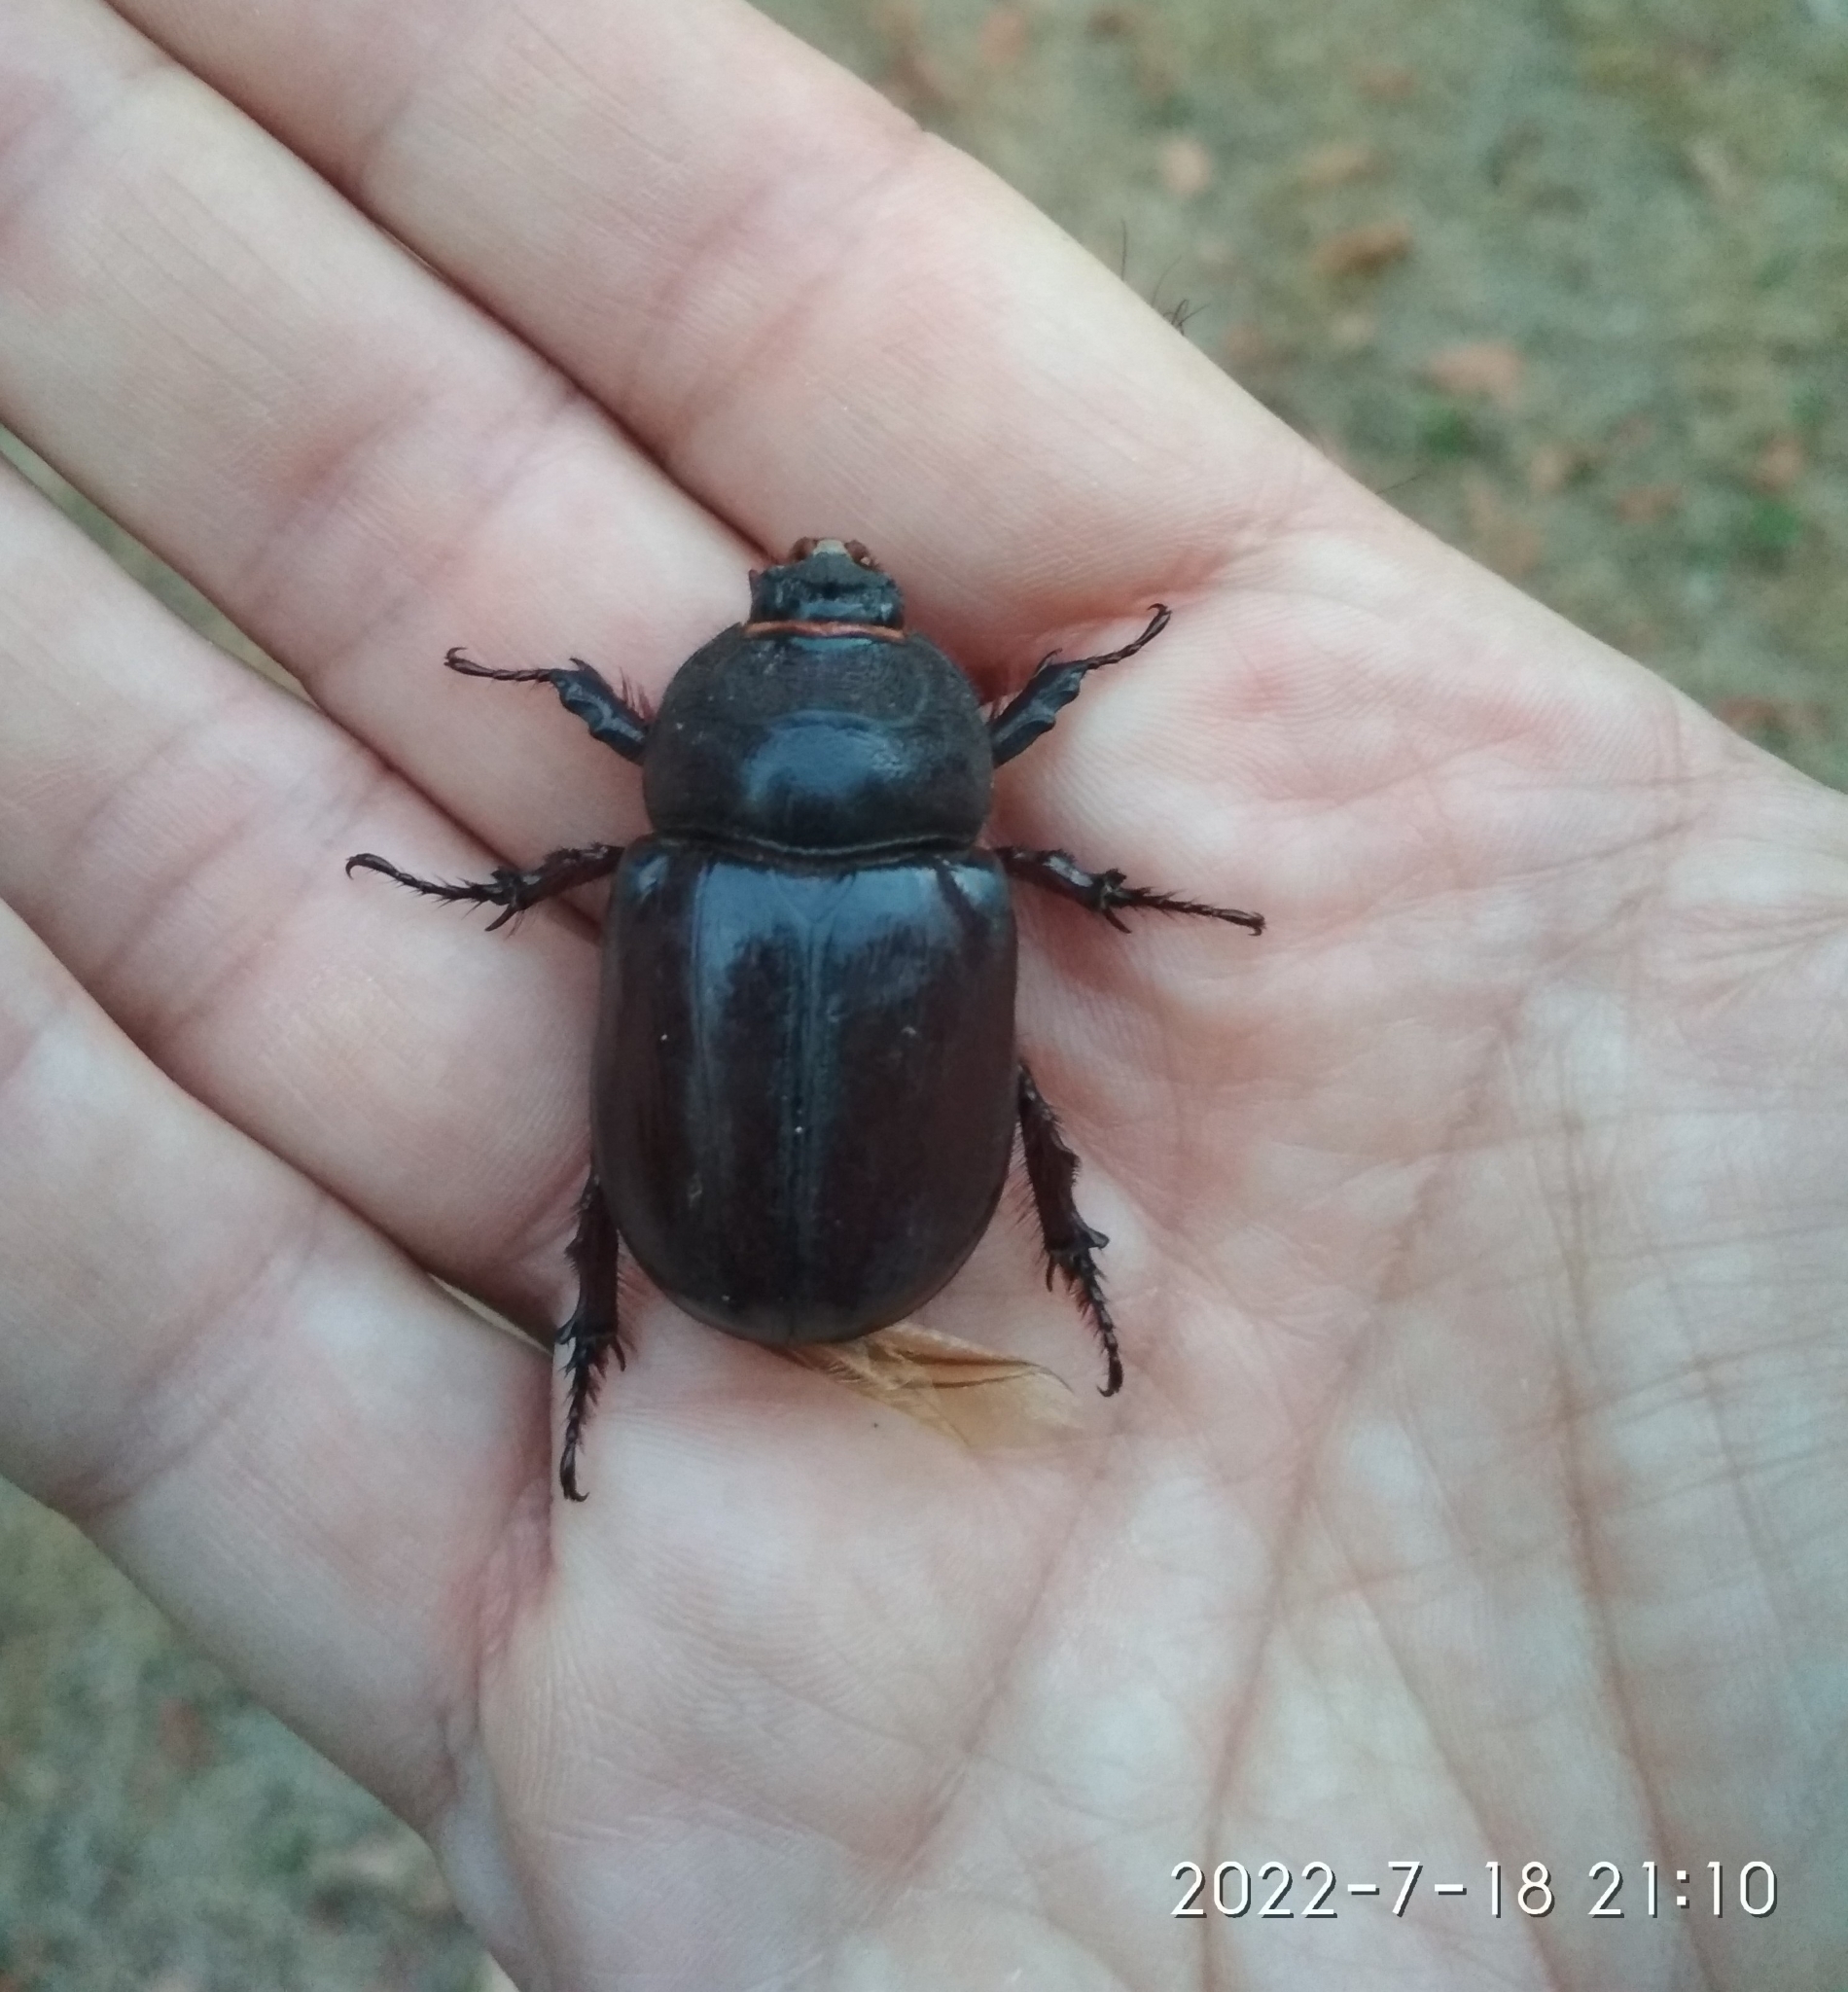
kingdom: Animalia
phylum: Arthropoda
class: Insecta
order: Coleoptera
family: Scarabaeidae
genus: Oryctes
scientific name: Oryctes nasicornis
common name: European rhinoceros beetle
